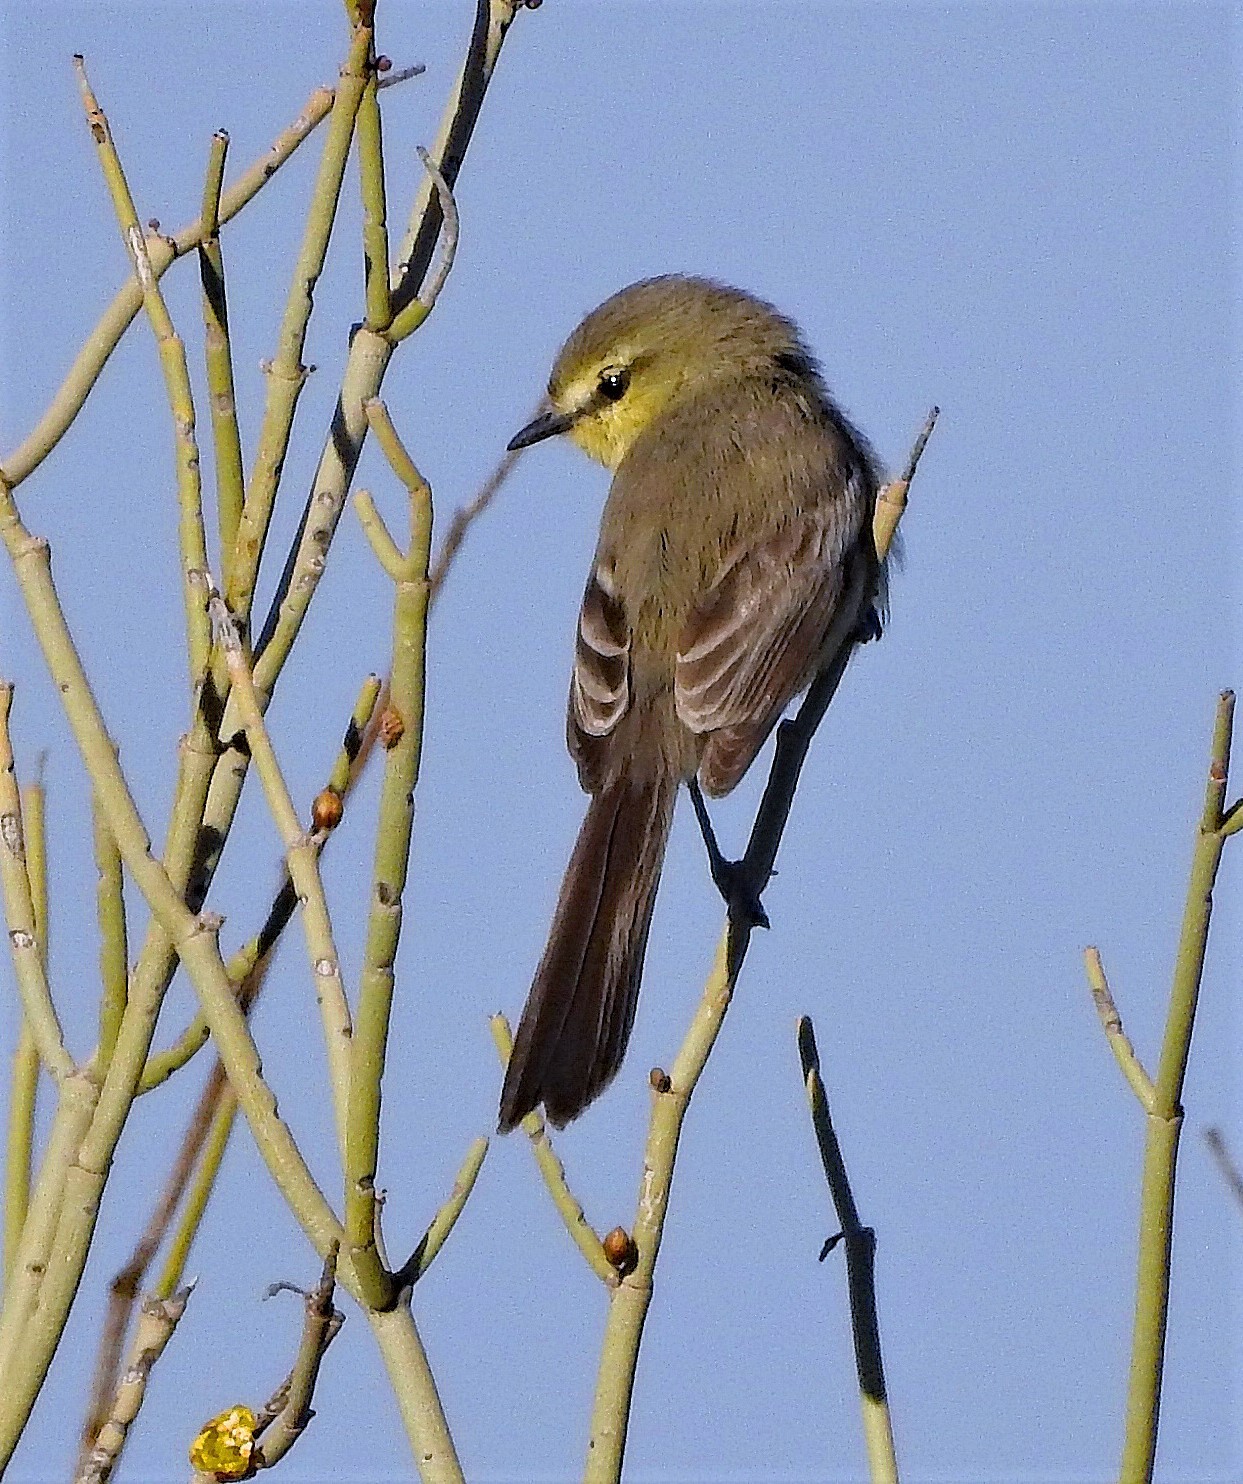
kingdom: Animalia
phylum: Chordata
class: Aves
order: Passeriformes
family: Tyrannidae
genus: Stigmatura
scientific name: Stigmatura budytoides
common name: Greater wagtail-tyrant
